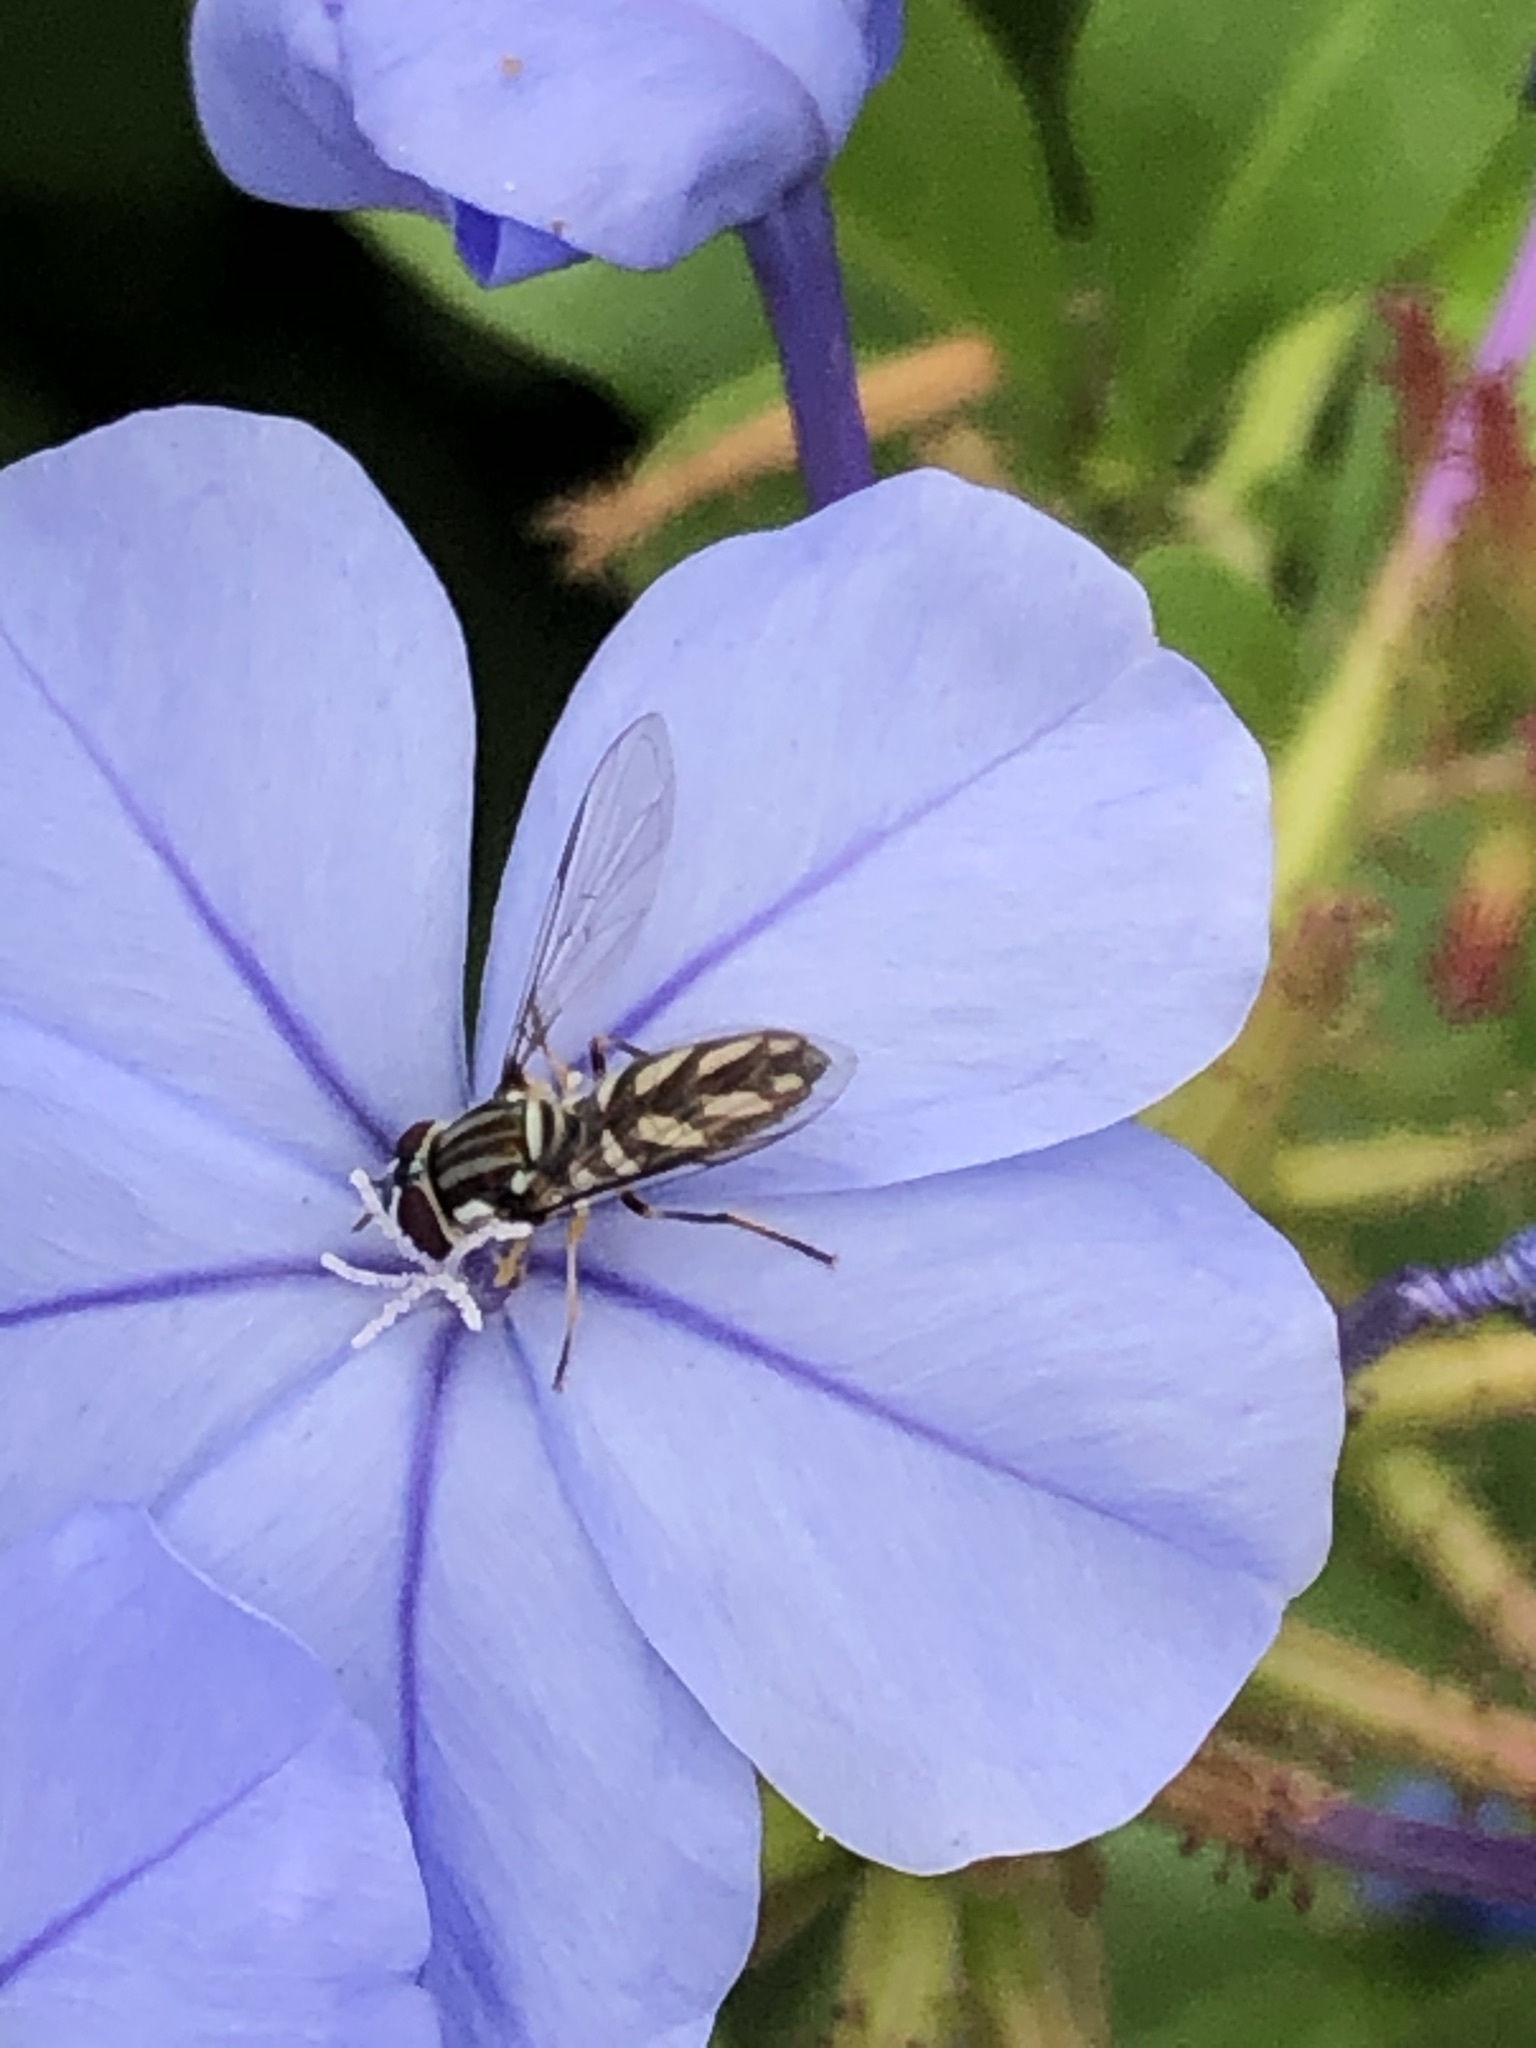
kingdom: Animalia
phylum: Arthropoda
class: Insecta
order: Diptera
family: Syrphidae
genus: Allograpta
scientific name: Allograpta piurana
